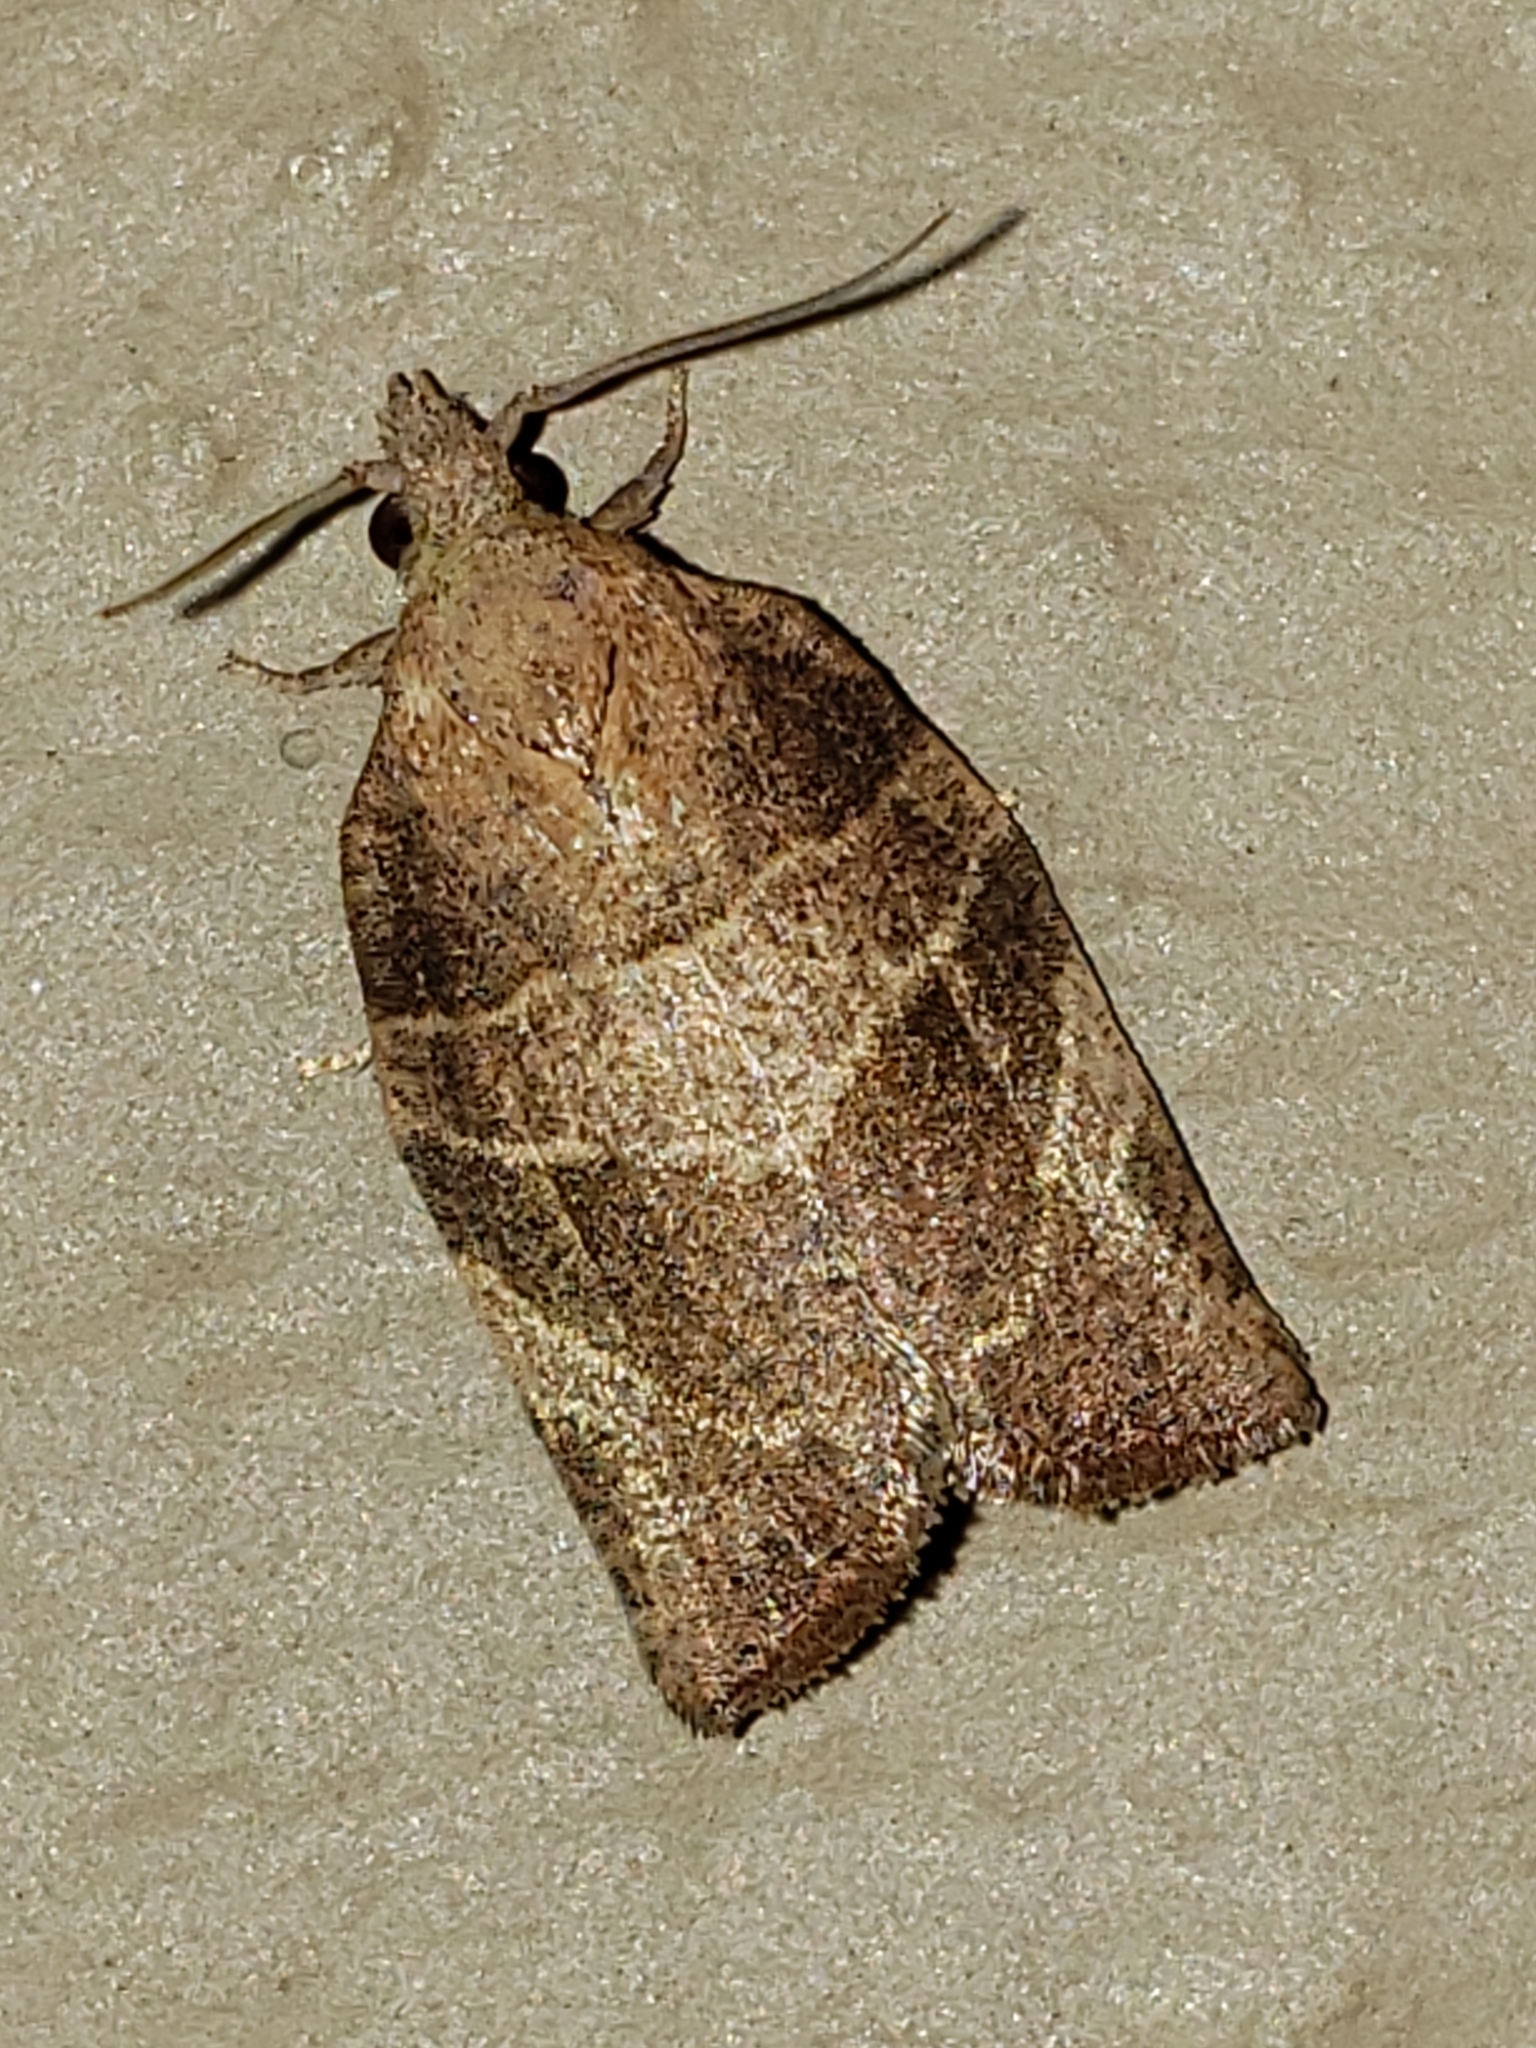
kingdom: Animalia
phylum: Arthropoda
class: Insecta
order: Lepidoptera
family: Tortricidae
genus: Pandemis
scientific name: Pandemis limitata
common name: Three-lined leafroller moth
